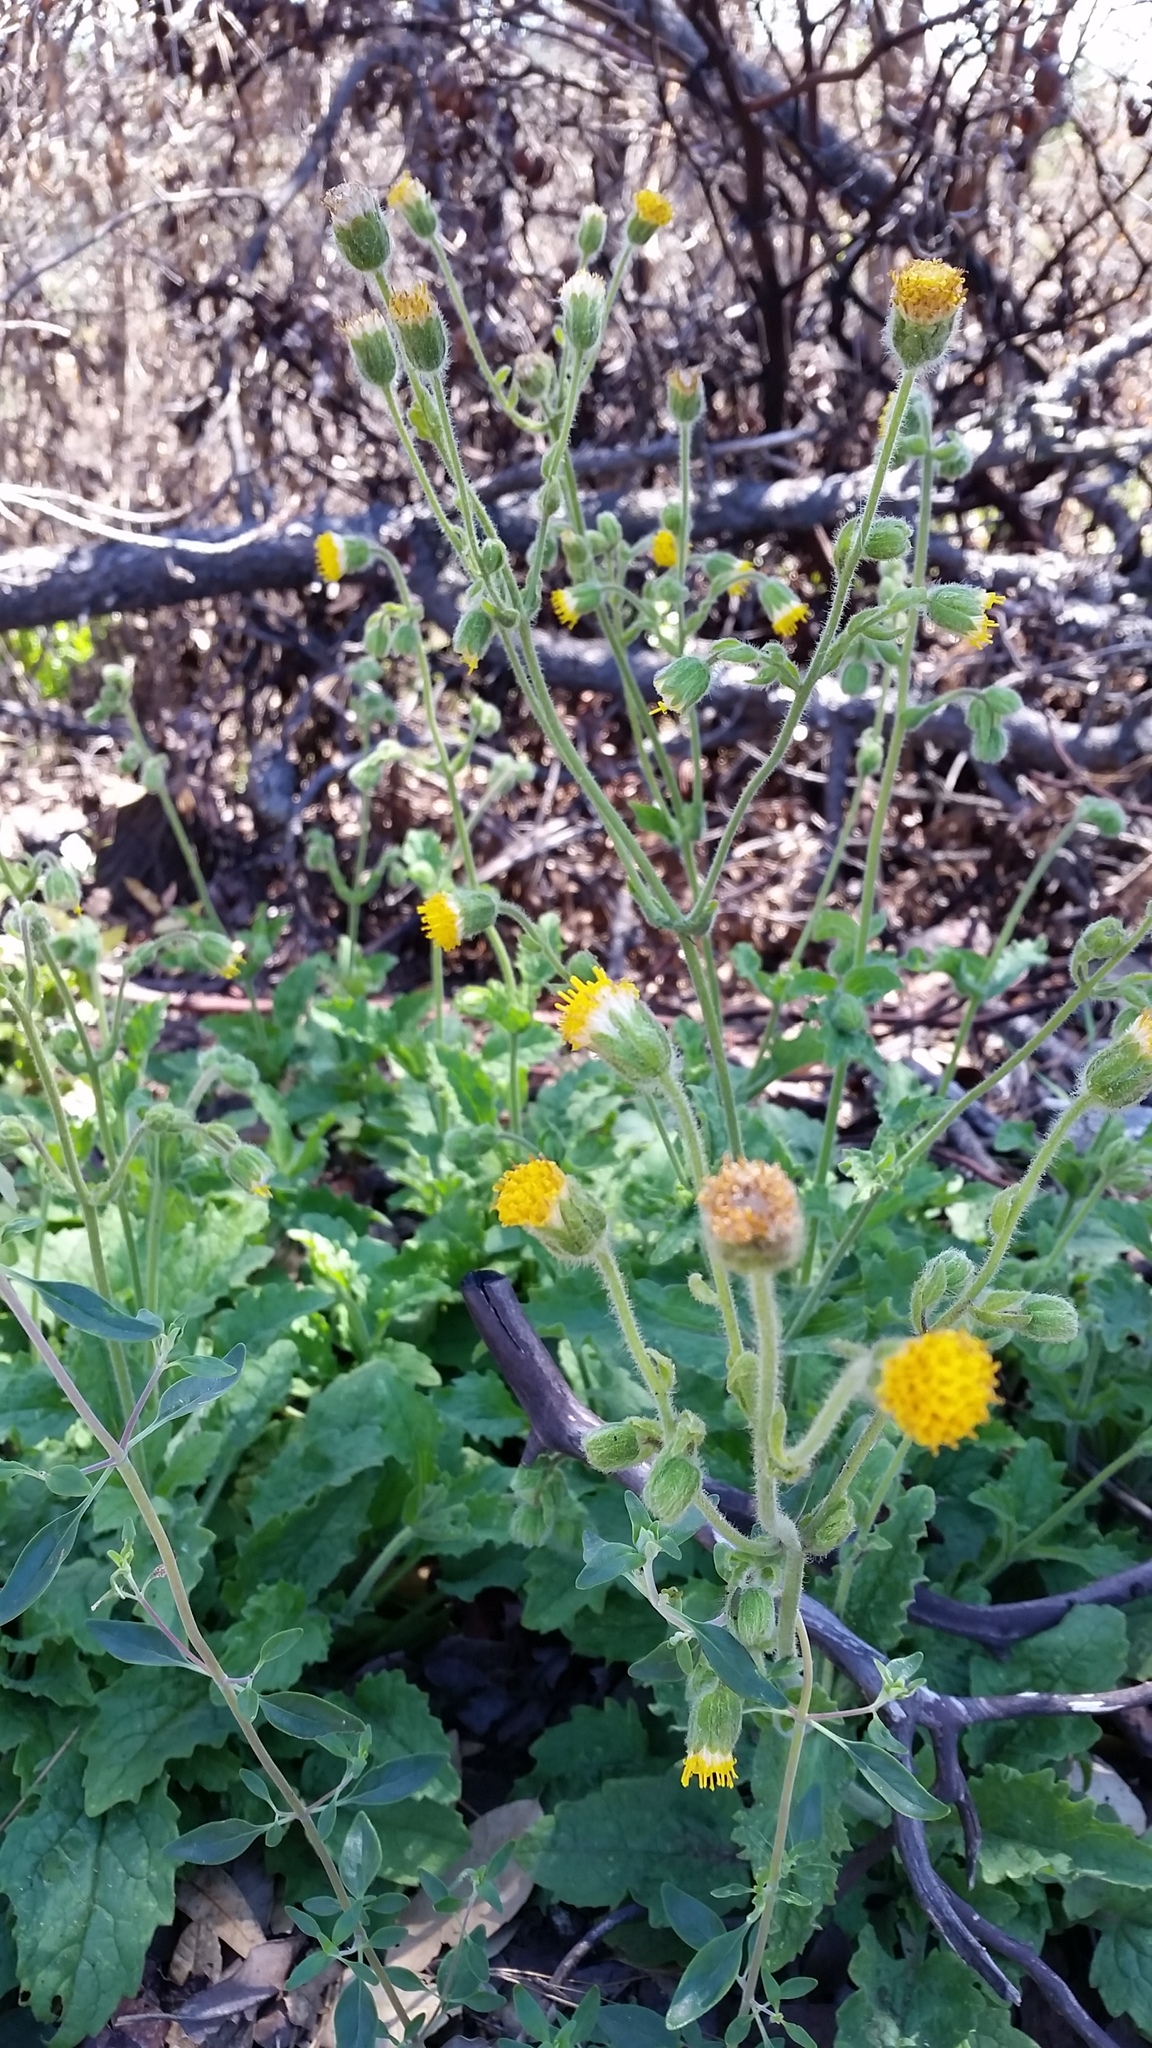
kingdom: Plantae
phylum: Tracheophyta
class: Magnoliopsida
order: Asterales
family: Asteraceae
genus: Arnica
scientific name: Arnica discoidea
